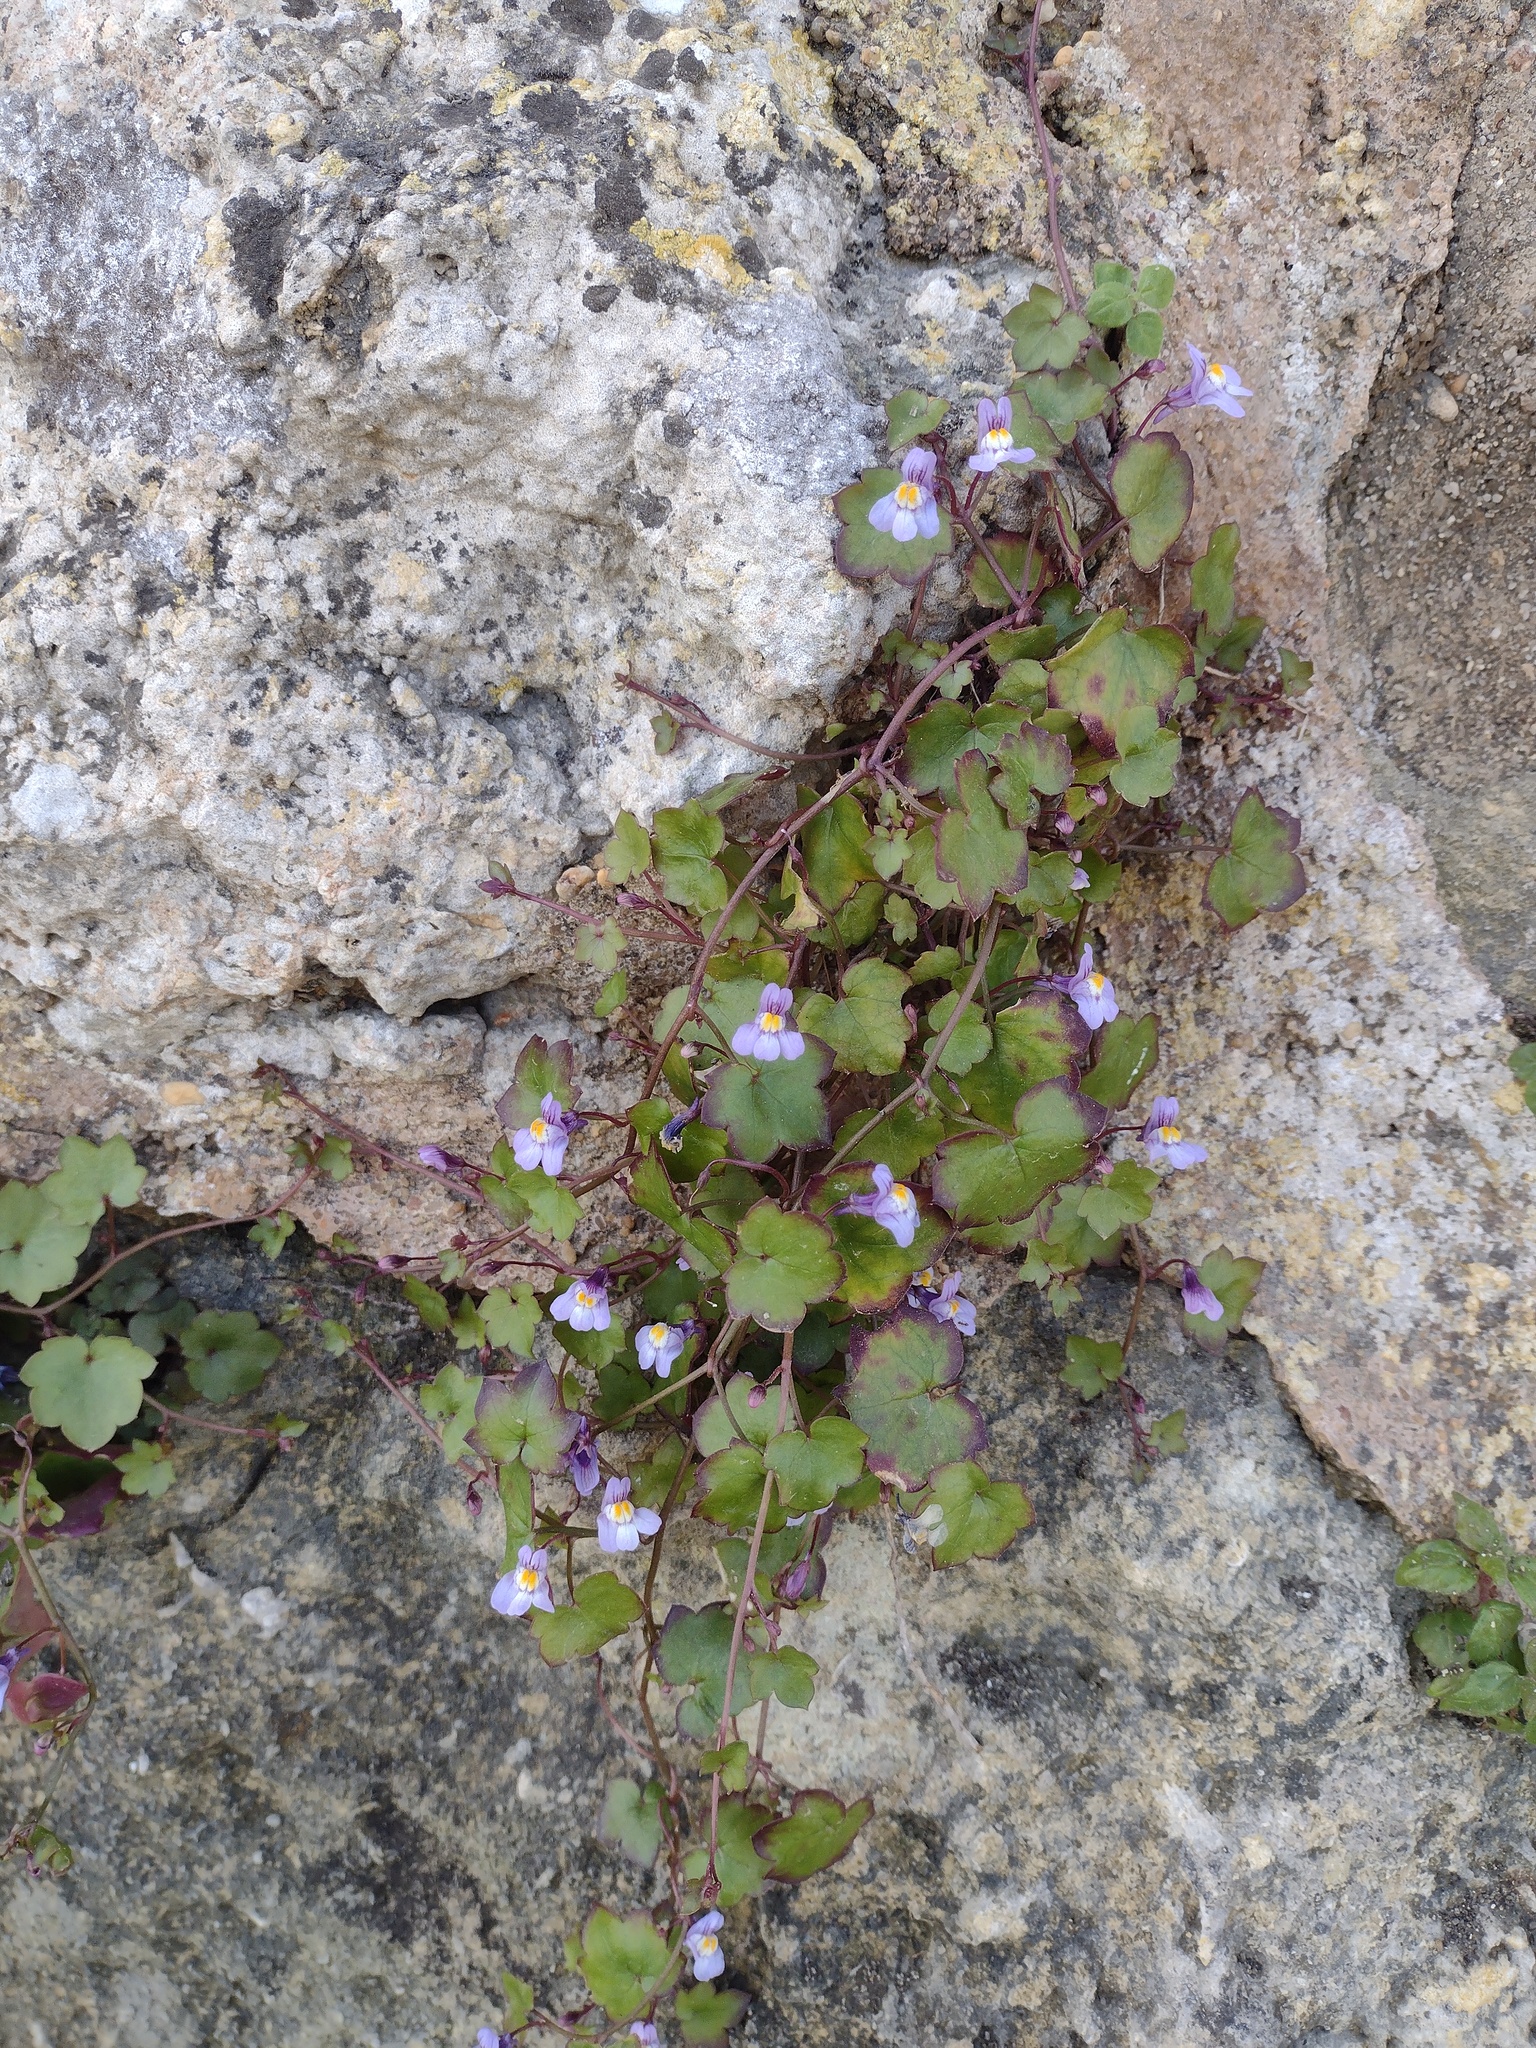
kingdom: Plantae
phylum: Tracheophyta
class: Magnoliopsida
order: Lamiales
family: Plantaginaceae
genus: Cymbalaria
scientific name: Cymbalaria muralis
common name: Ivy-leaved toadflax
